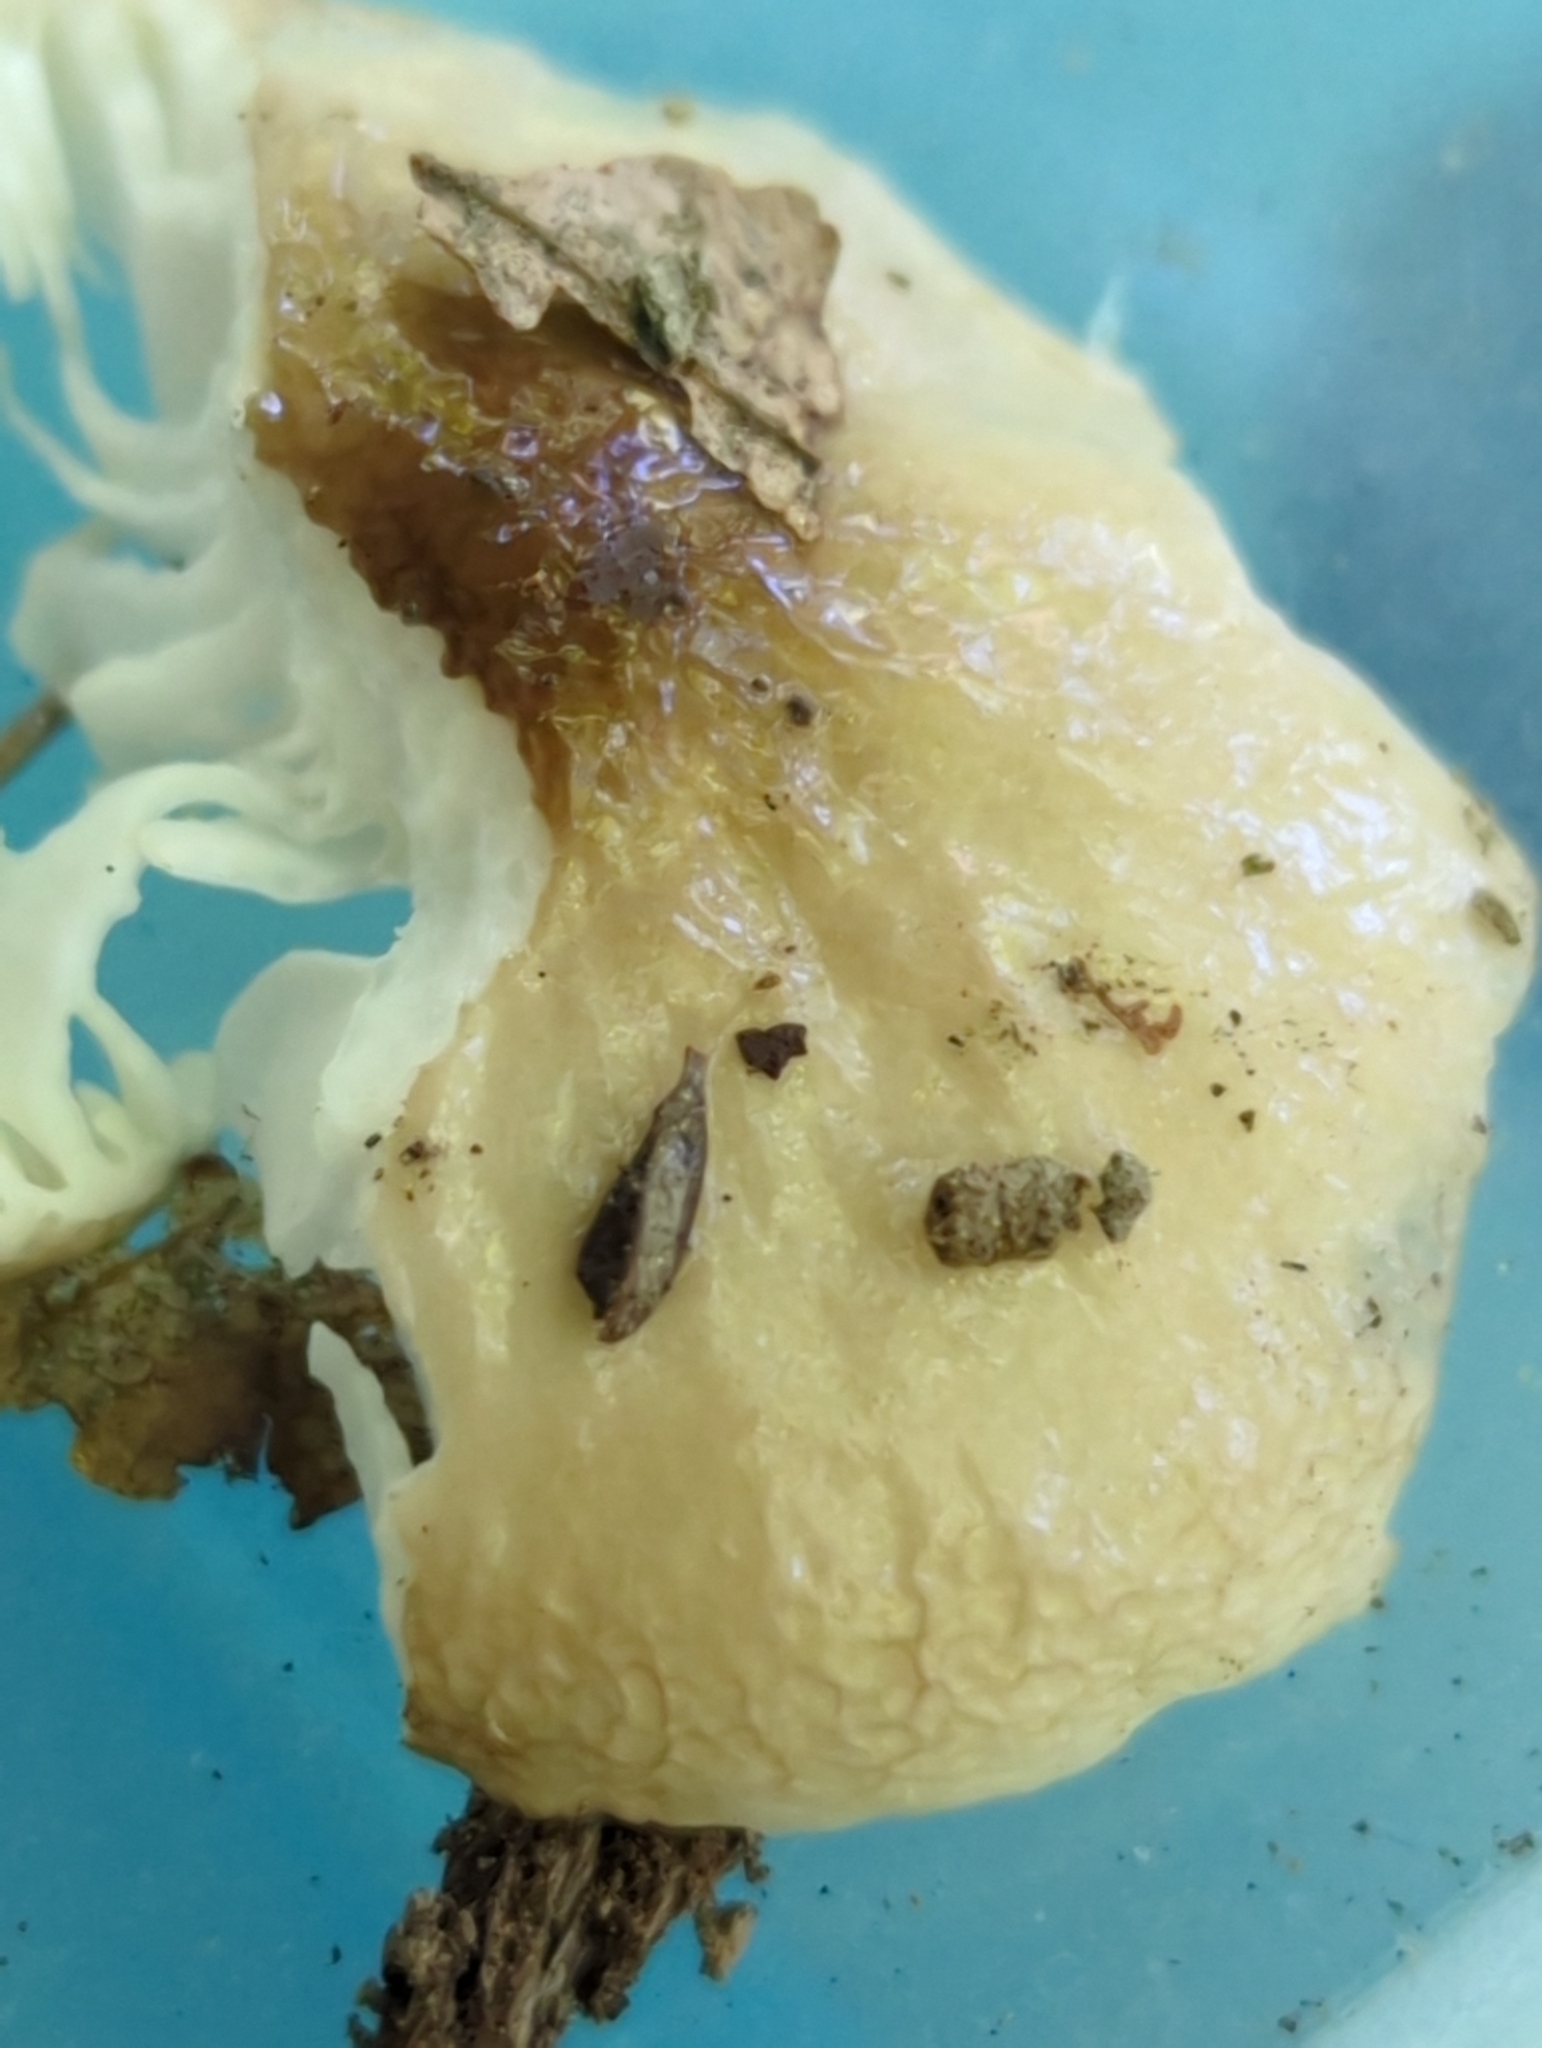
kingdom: Fungi
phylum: Basidiomycota
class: Agaricomycetes
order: Agaricales
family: Bolbitiaceae
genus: Bolbitius
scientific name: Bolbitius reticulatus
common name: Netted fieldcap
